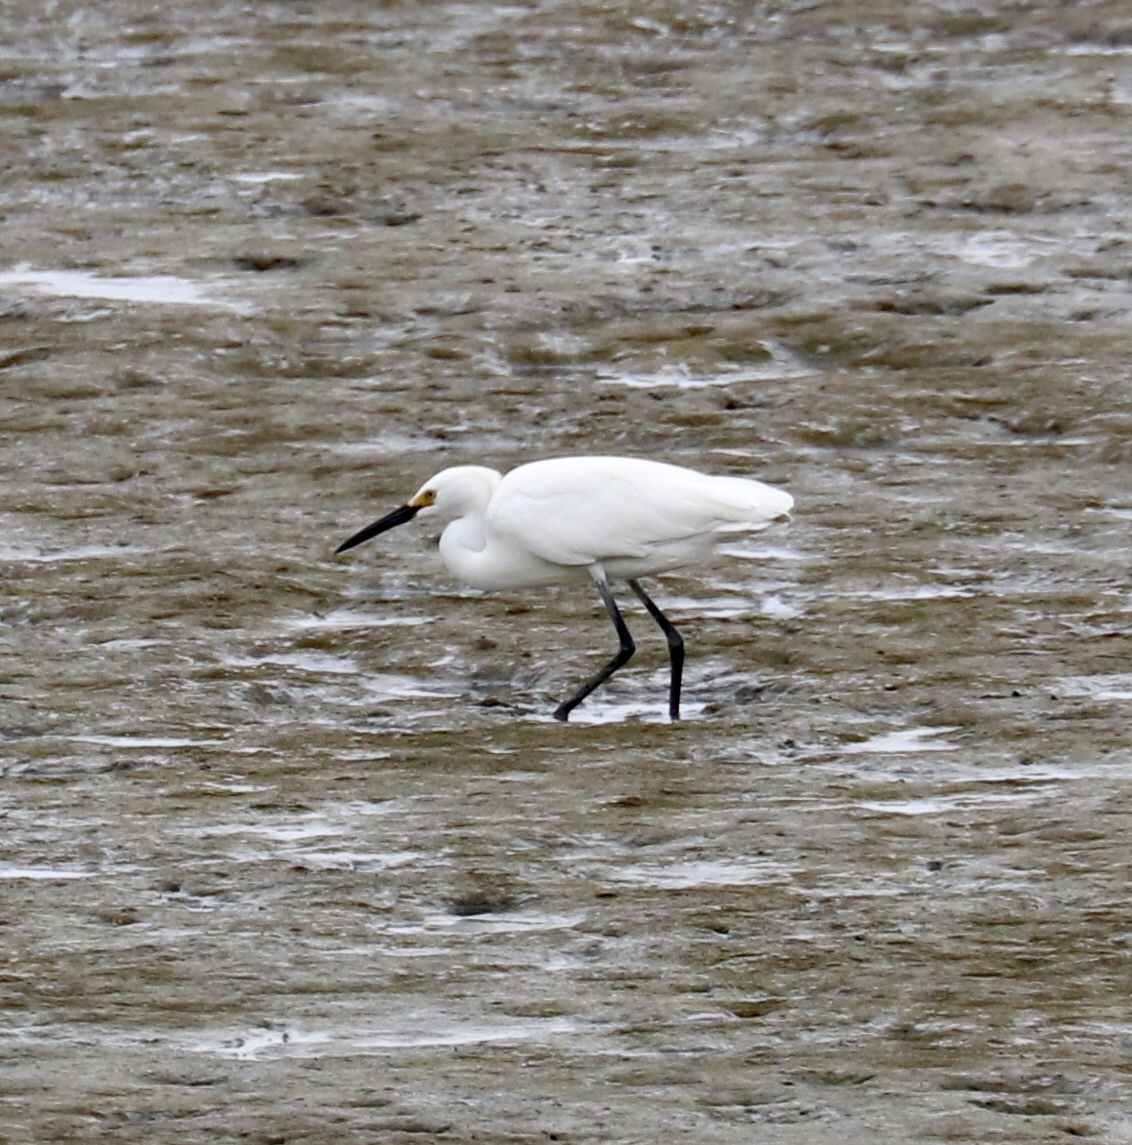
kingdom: Animalia
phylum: Chordata
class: Aves
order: Pelecaniformes
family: Ardeidae
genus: Egretta
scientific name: Egretta thula
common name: Snowy egret
